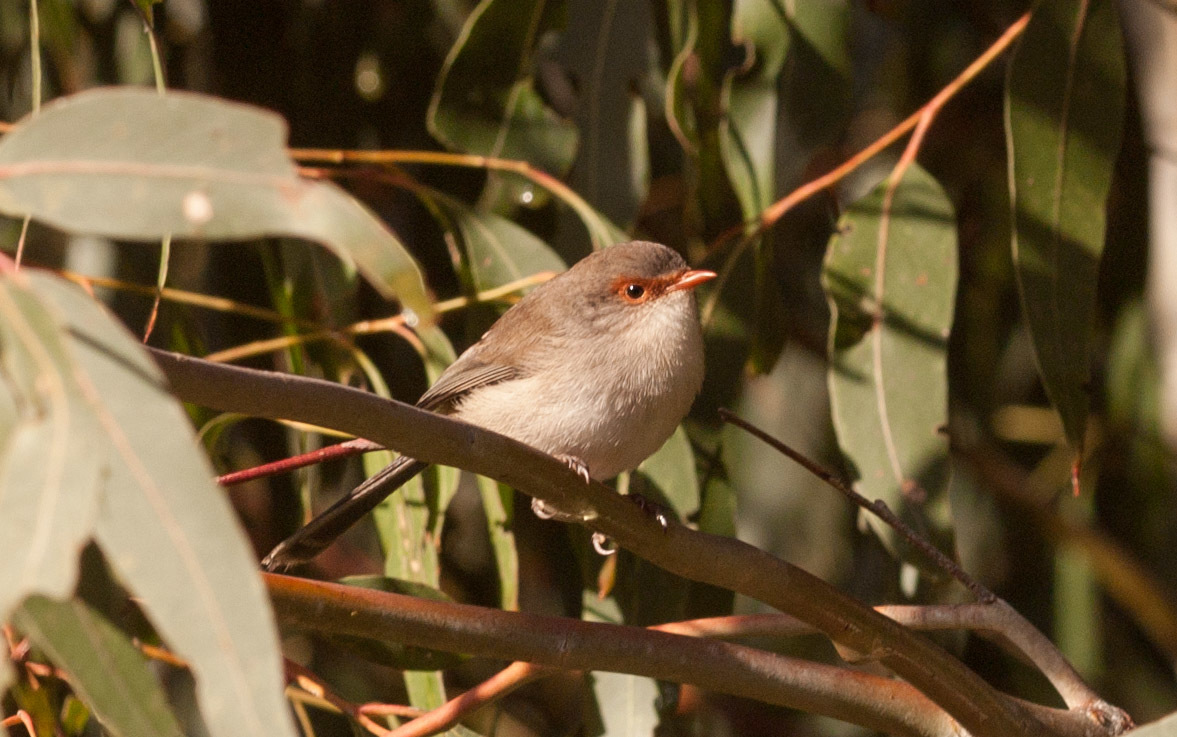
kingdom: Animalia
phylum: Chordata
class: Aves
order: Passeriformes
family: Maluridae
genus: Malurus
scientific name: Malurus cyaneus
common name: Superb fairywren
